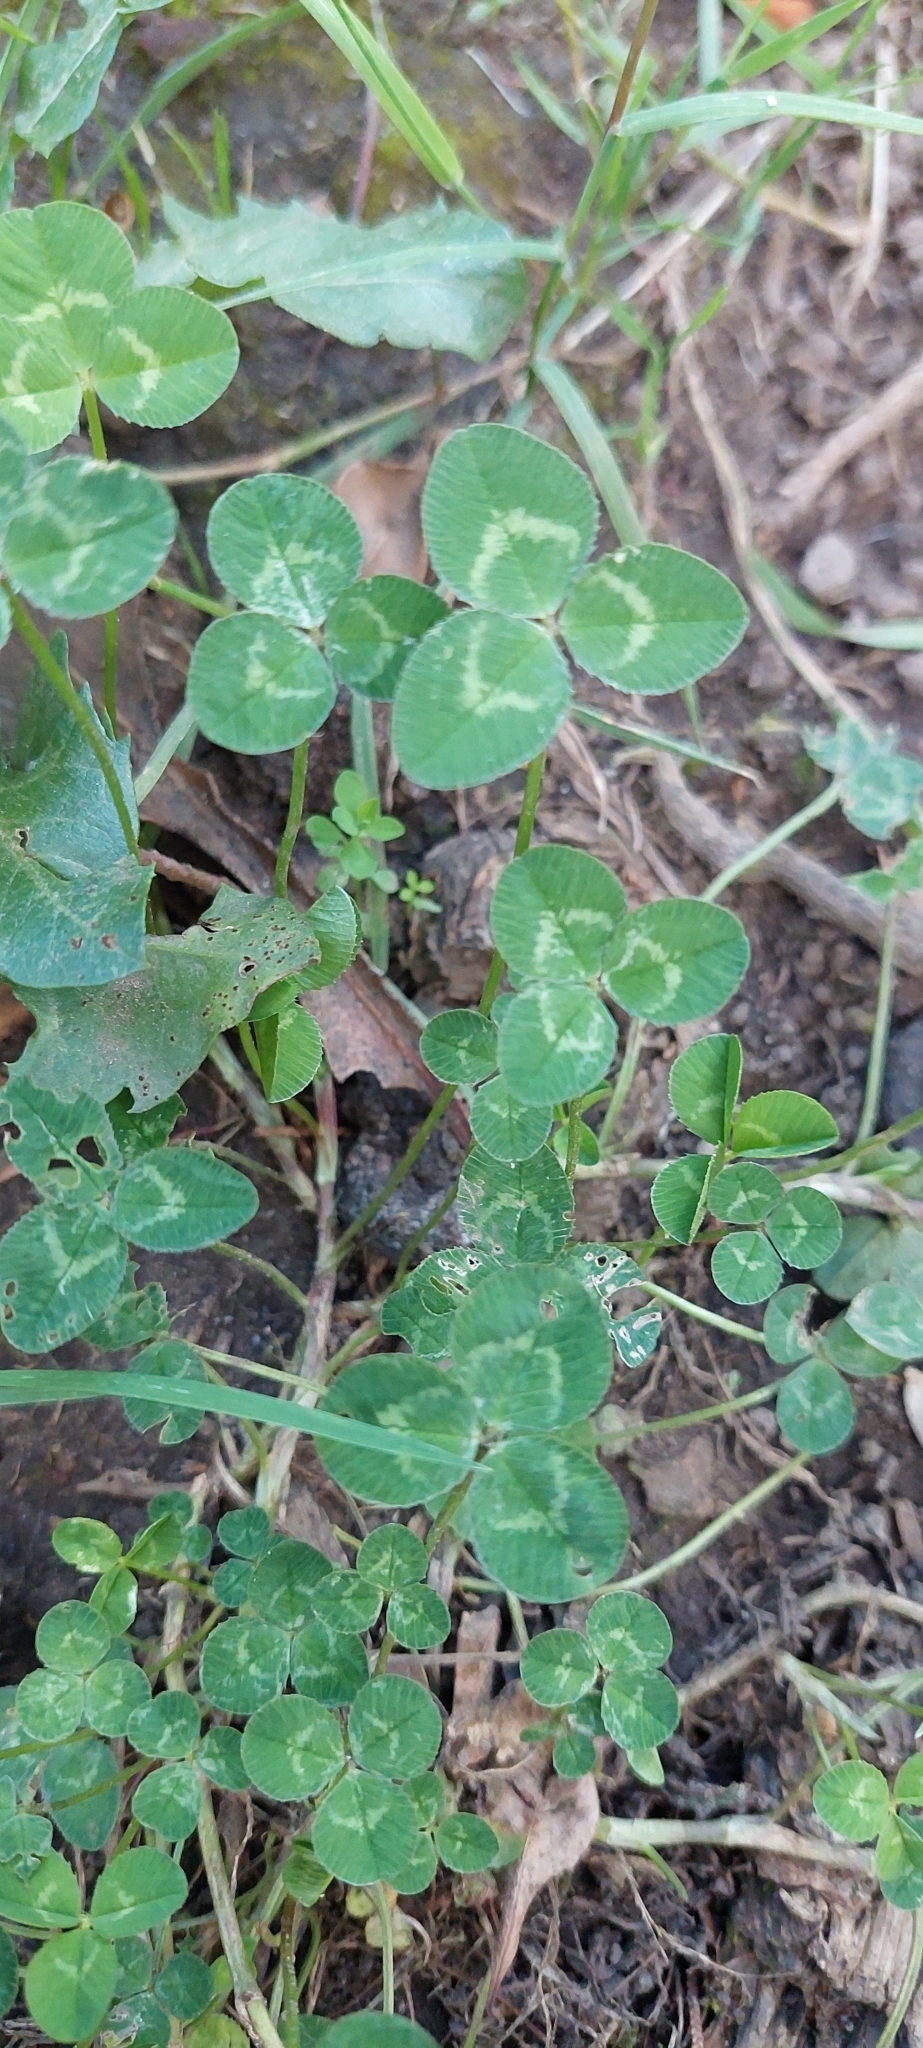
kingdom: Plantae
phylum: Tracheophyta
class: Magnoliopsida
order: Fabales
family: Fabaceae
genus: Trifolium
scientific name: Trifolium repens
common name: White clover
